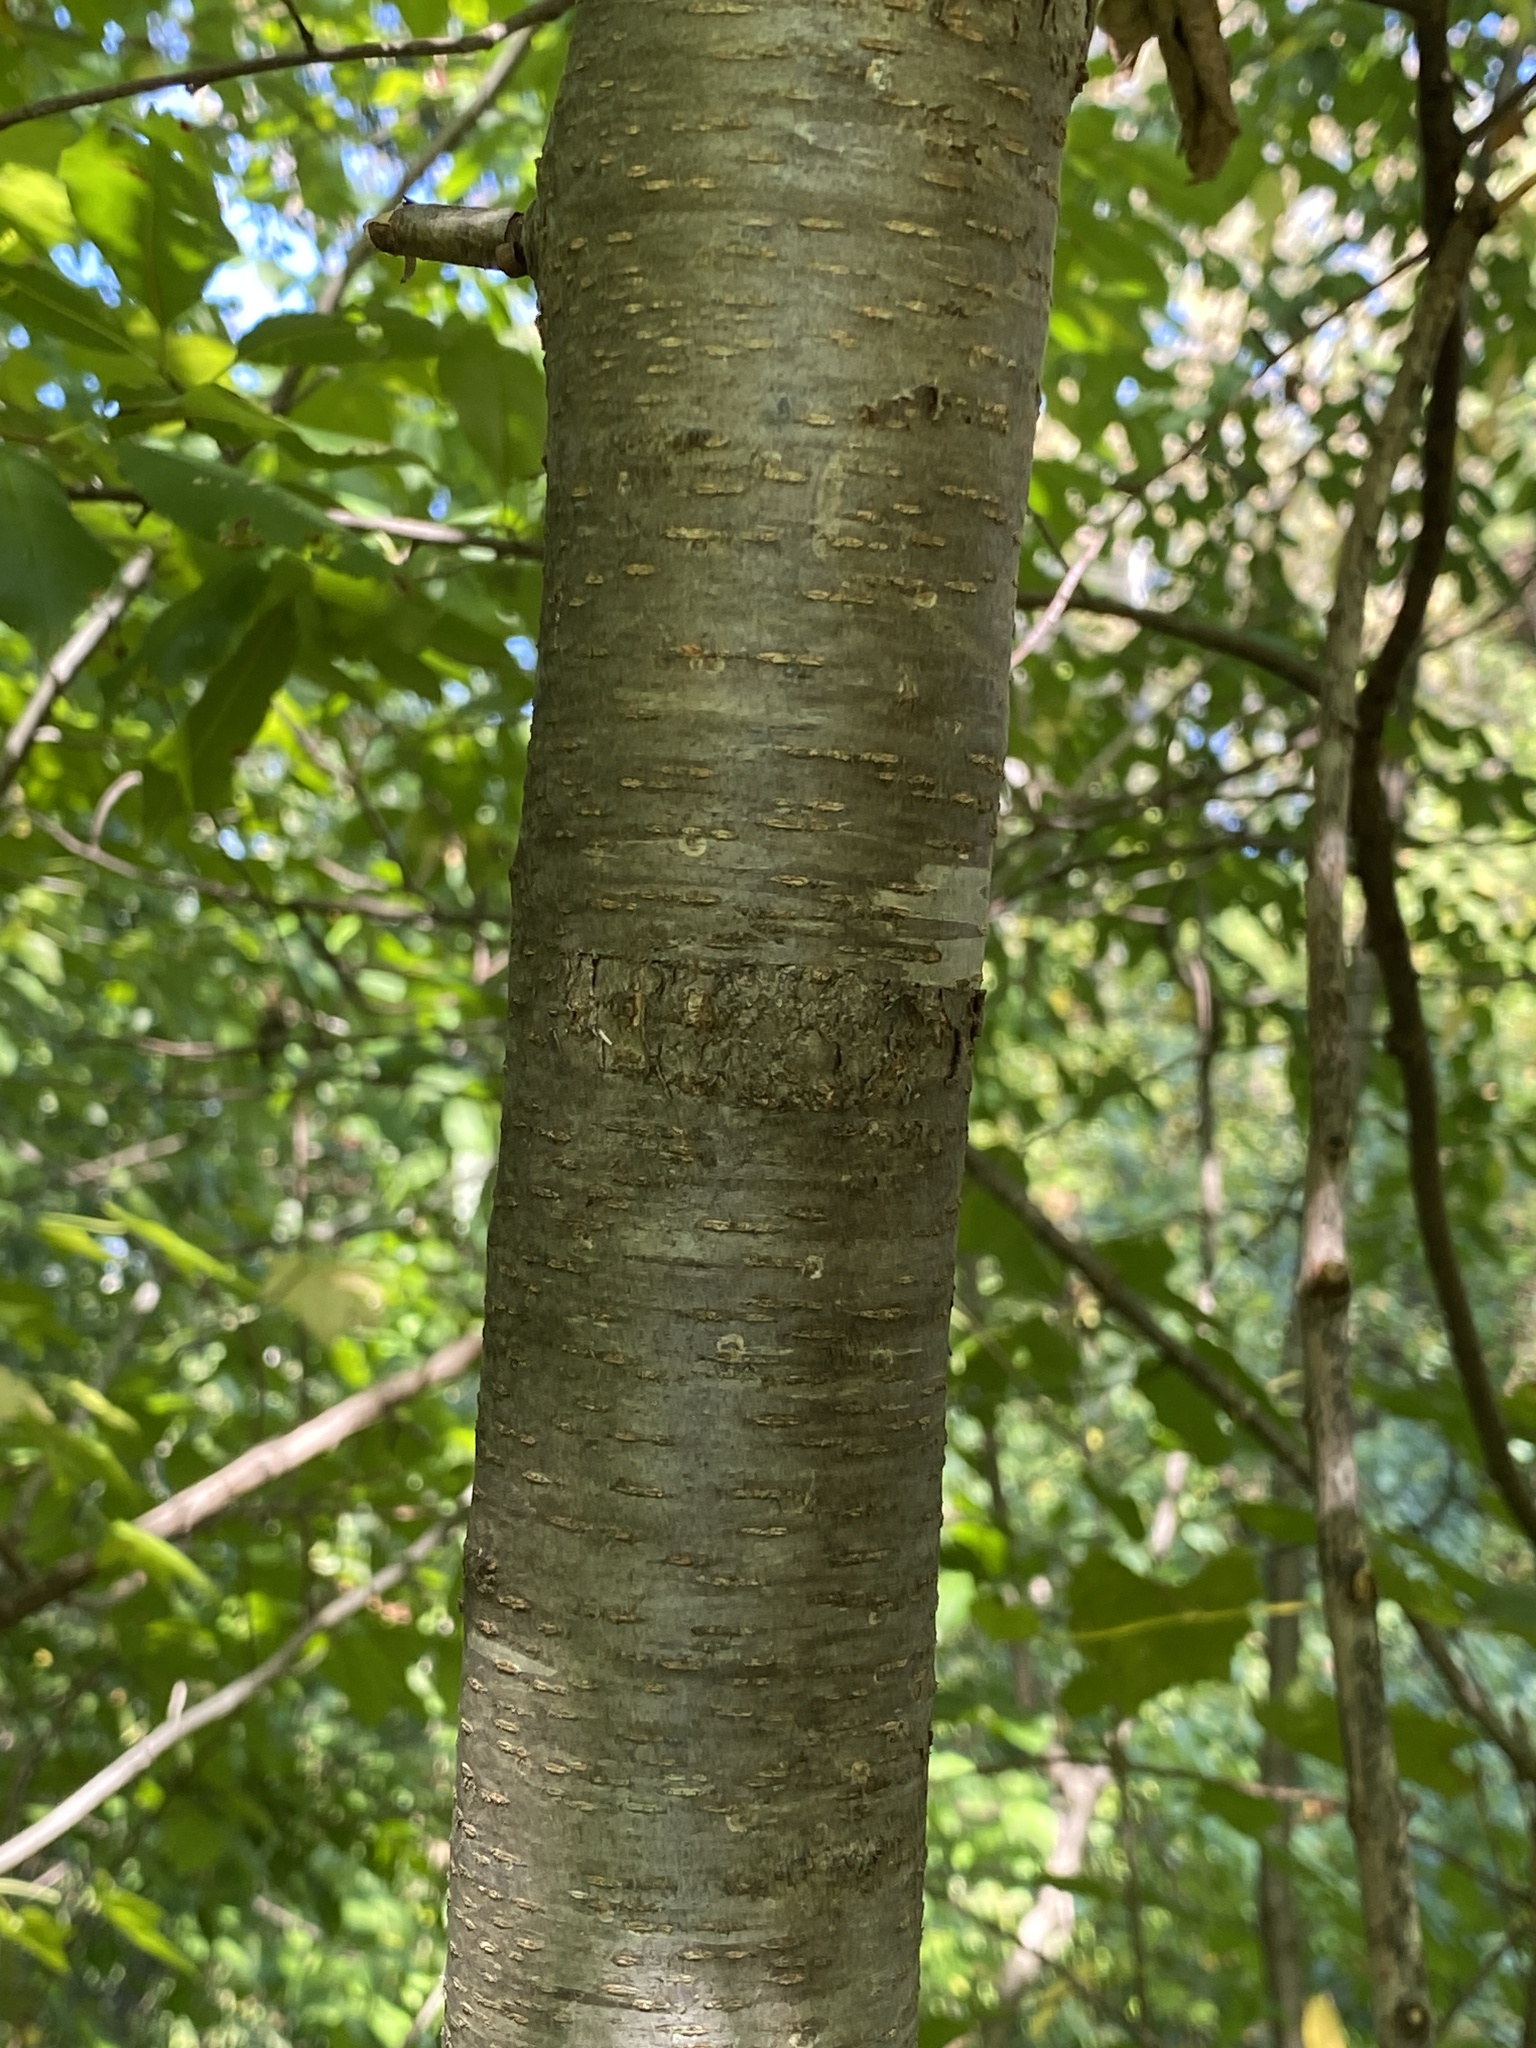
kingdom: Plantae
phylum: Tracheophyta
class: Magnoliopsida
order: Rosales
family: Rosaceae
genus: Prunus
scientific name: Prunus serotina
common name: Black cherry
